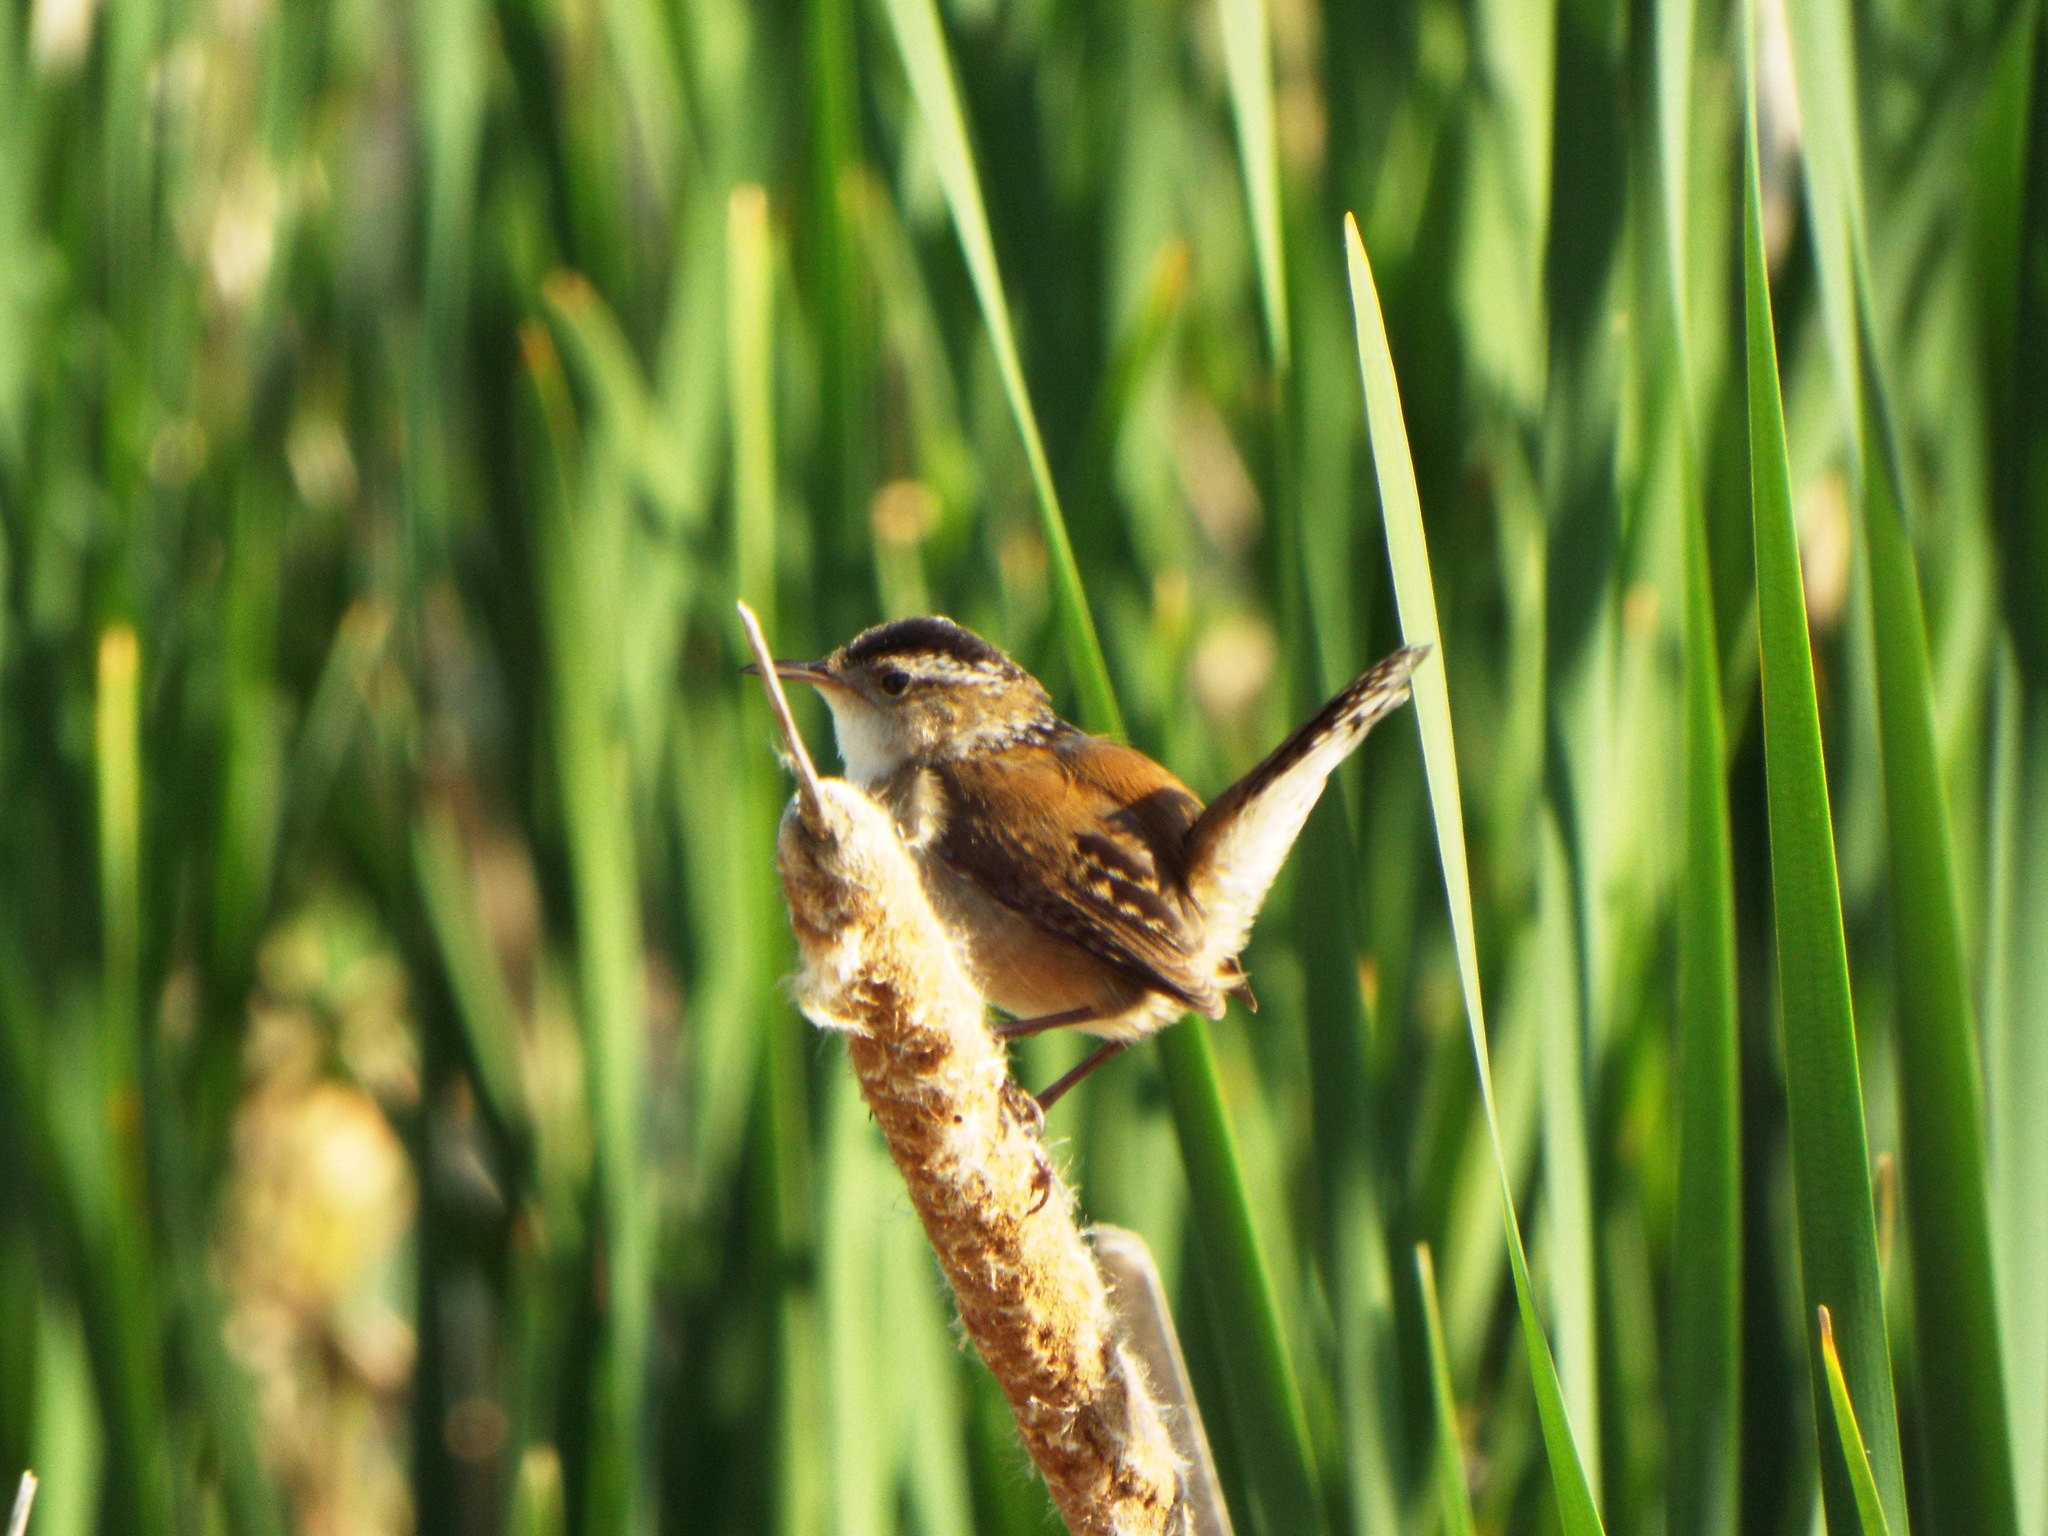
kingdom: Animalia
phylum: Chordata
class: Aves
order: Passeriformes
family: Troglodytidae
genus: Cistothorus
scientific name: Cistothorus palustris
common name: Marsh wren
